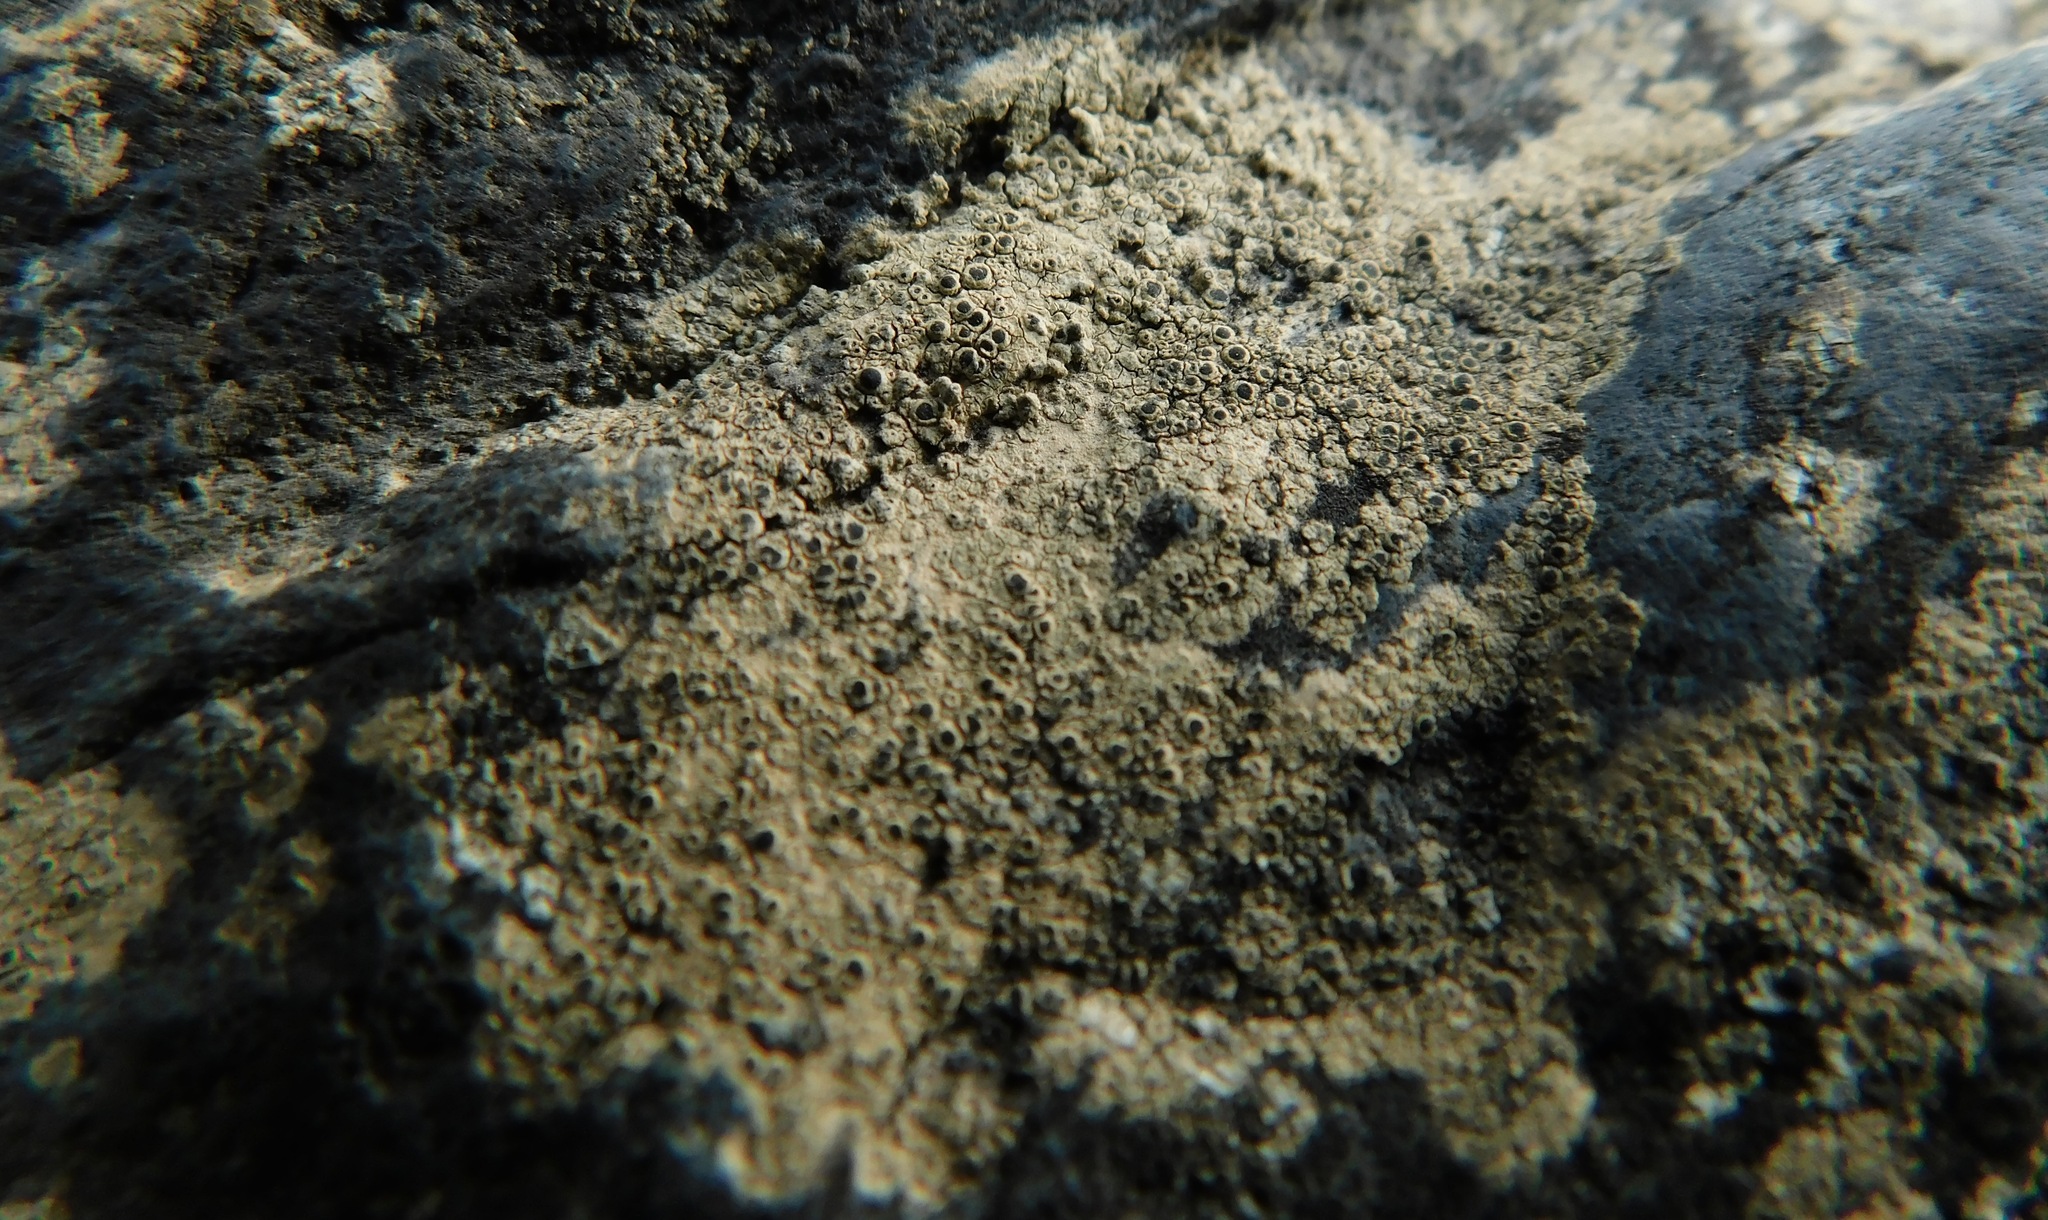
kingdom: Fungi
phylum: Ascomycota
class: Lecanoromycetes
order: Caliciales
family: Physciaceae
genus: Rinodina
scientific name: Rinodina milvina
